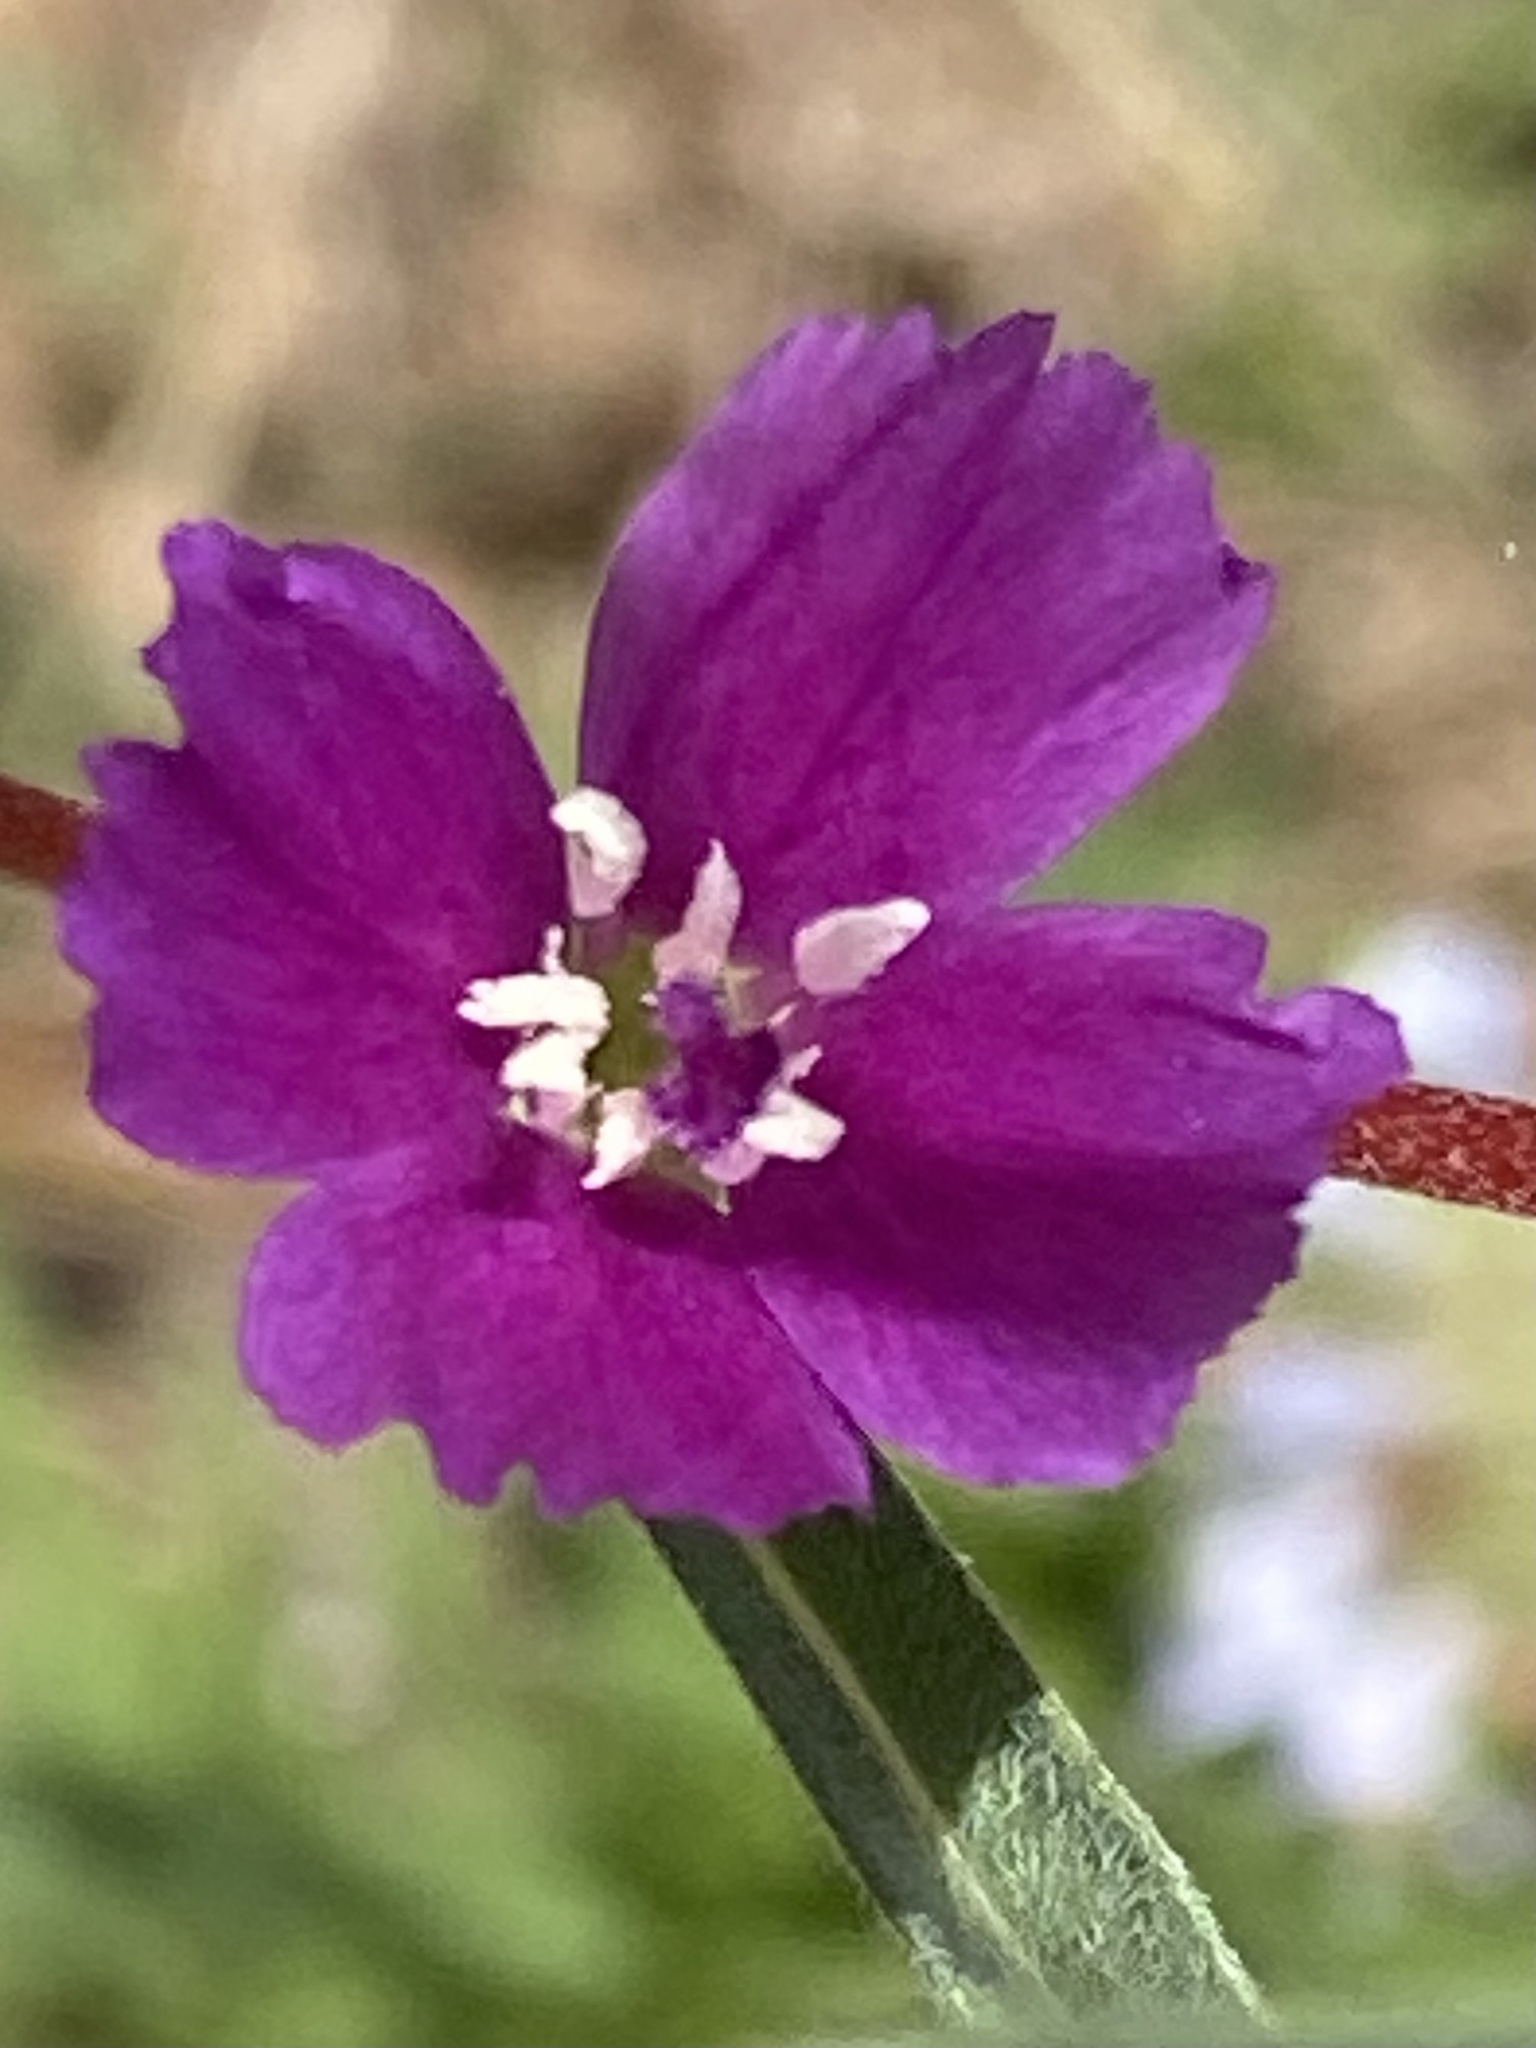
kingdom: Plantae
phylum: Tracheophyta
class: Magnoliopsida
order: Myrtales
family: Onagraceae
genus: Clarkia
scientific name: Clarkia purpurea
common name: Purple clarkia
